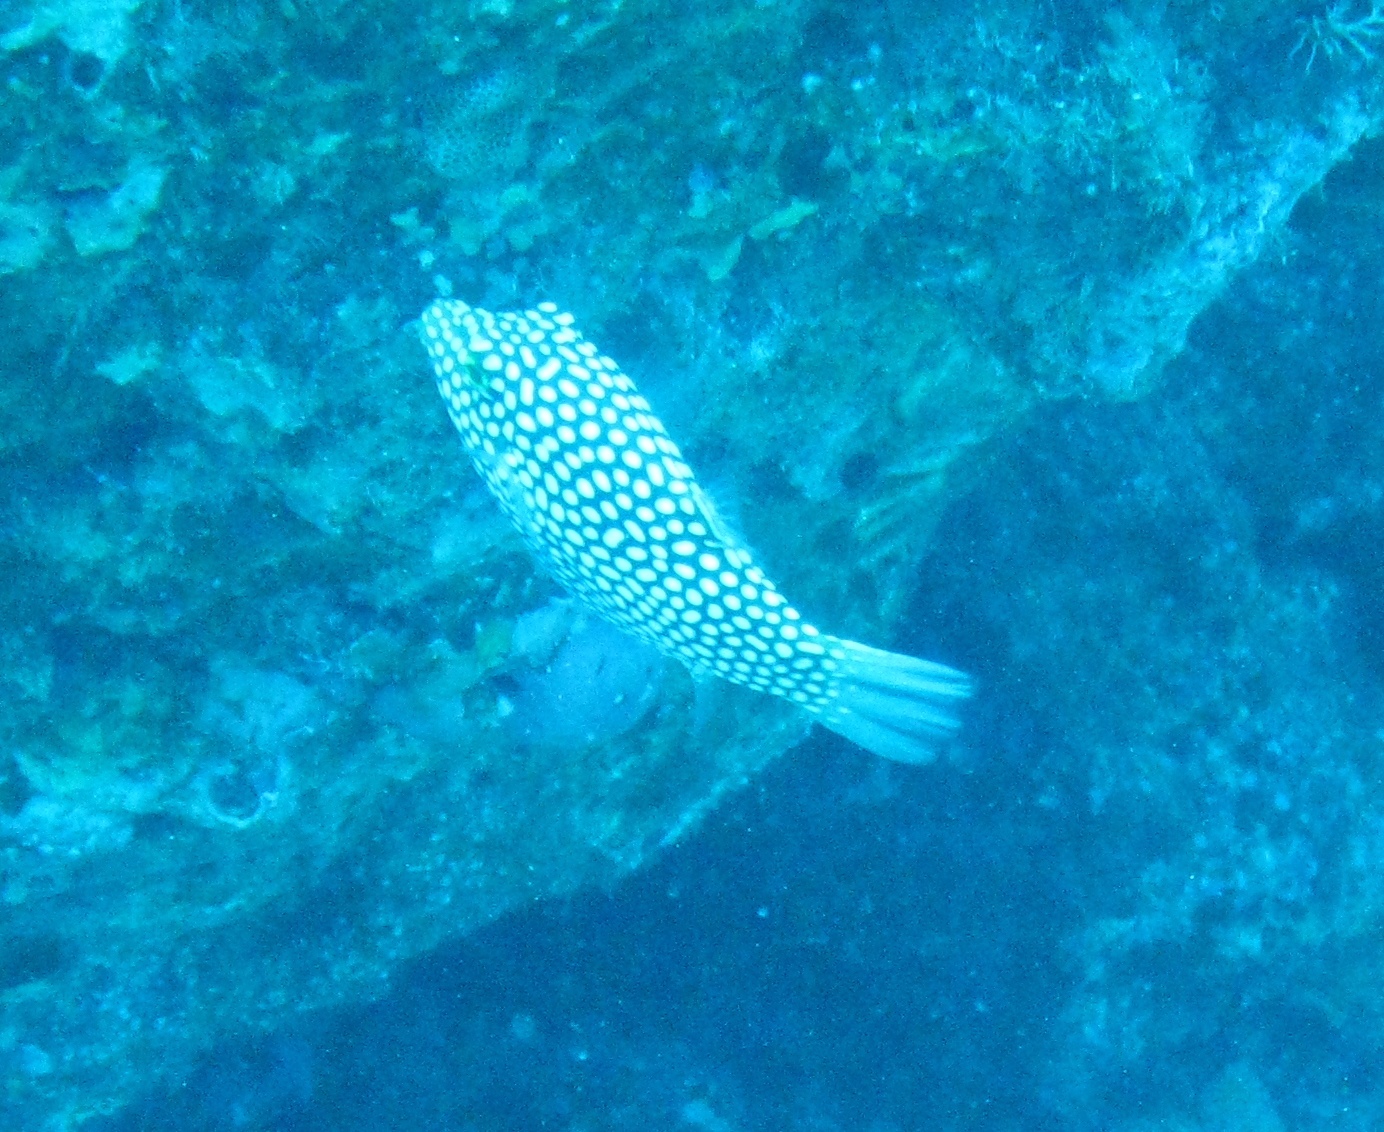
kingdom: Animalia
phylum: Chordata
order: Tetraodontiformes
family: Tetraodontidae
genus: Canthigaster
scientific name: Canthigaster jactator
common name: Hawaiian whitespotted toby
